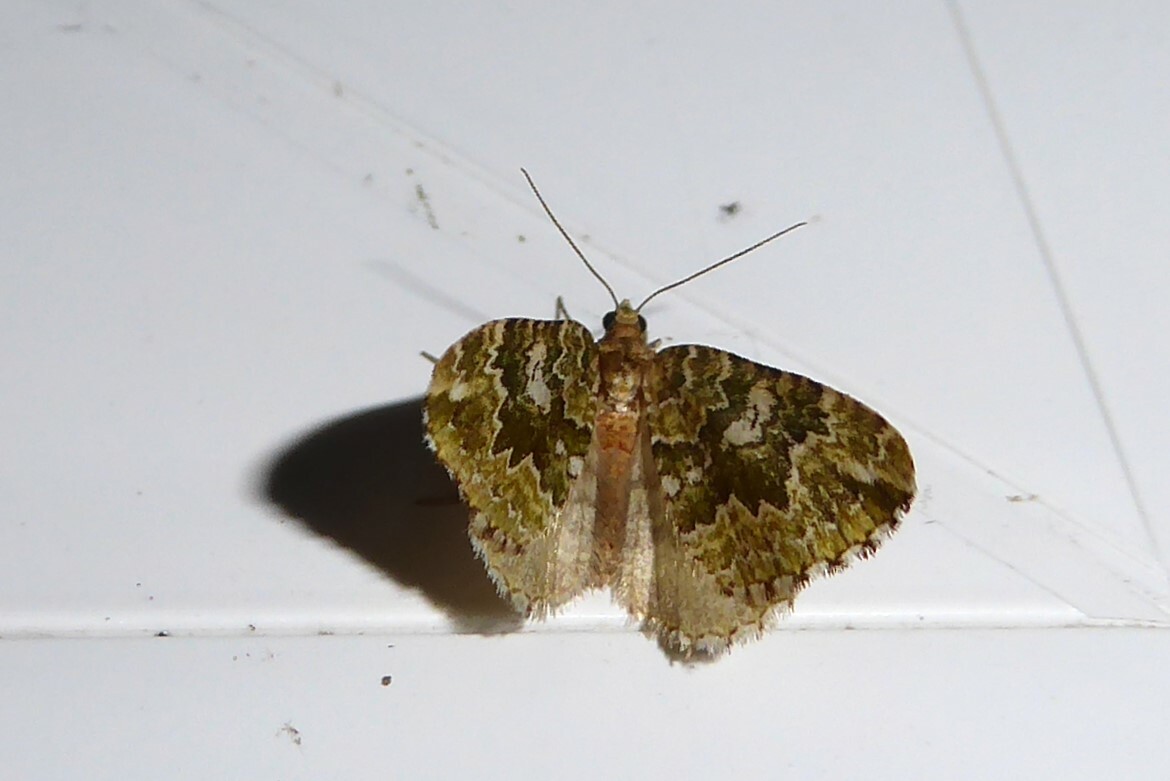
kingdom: Animalia
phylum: Arthropoda
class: Insecta
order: Lepidoptera
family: Geometridae
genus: Asaphodes
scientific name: Asaphodes beata
